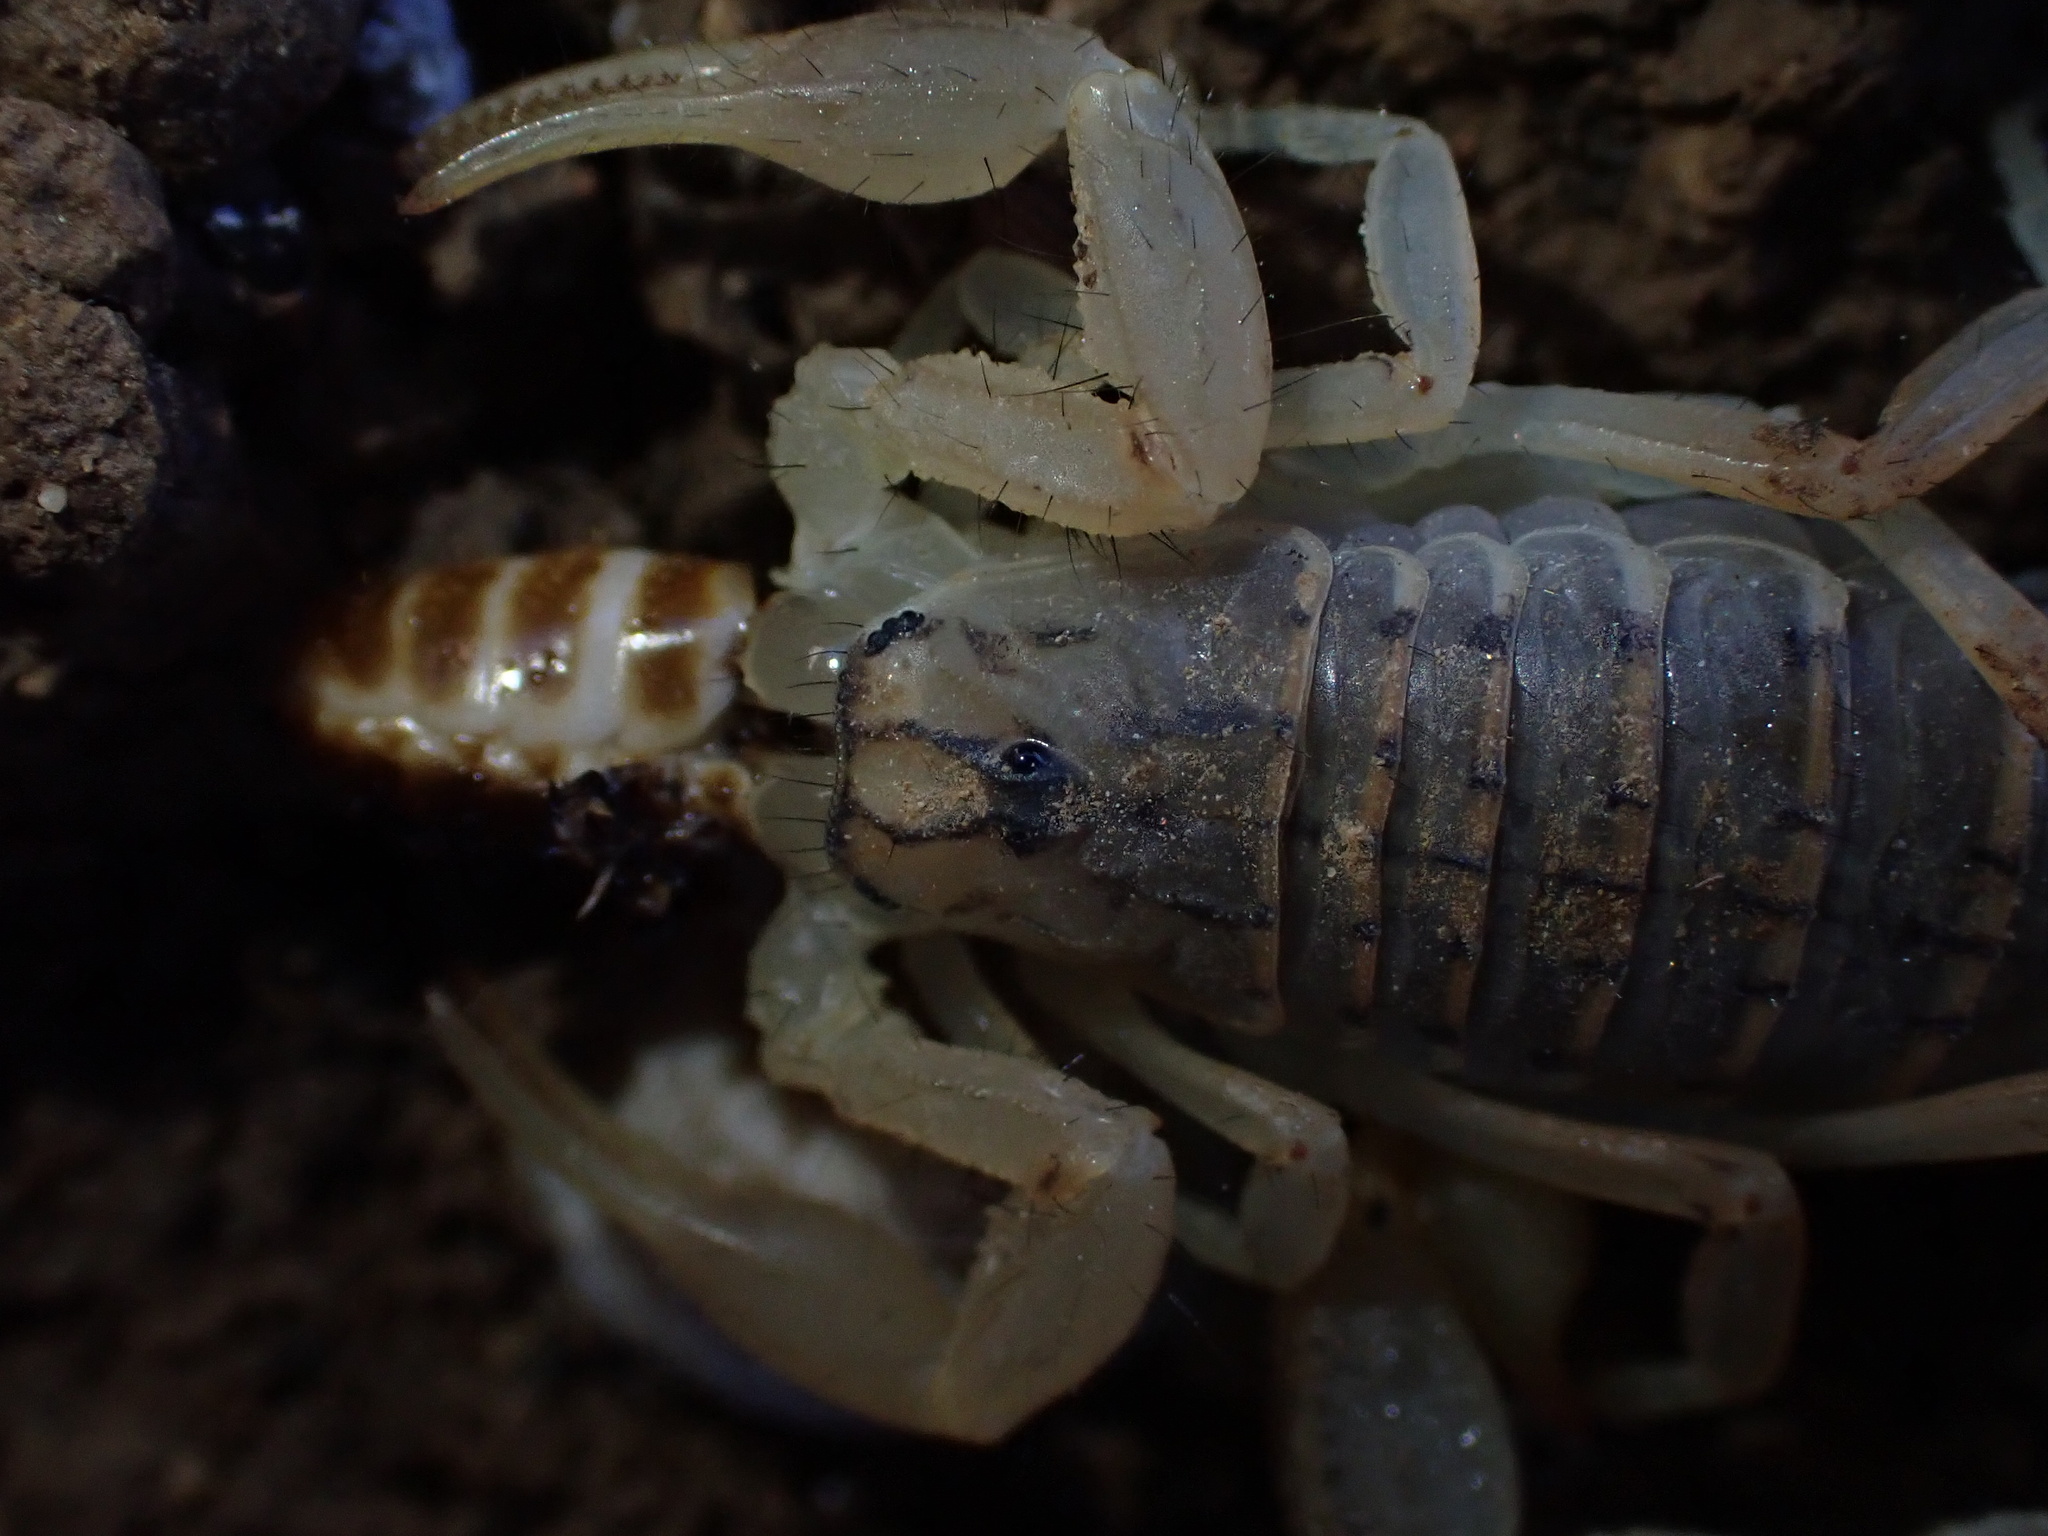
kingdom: Animalia
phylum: Arthropoda
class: Arachnida
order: Scorpiones
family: Buthidae
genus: Mesobuthus
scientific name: Mesobuthus phillipsi
